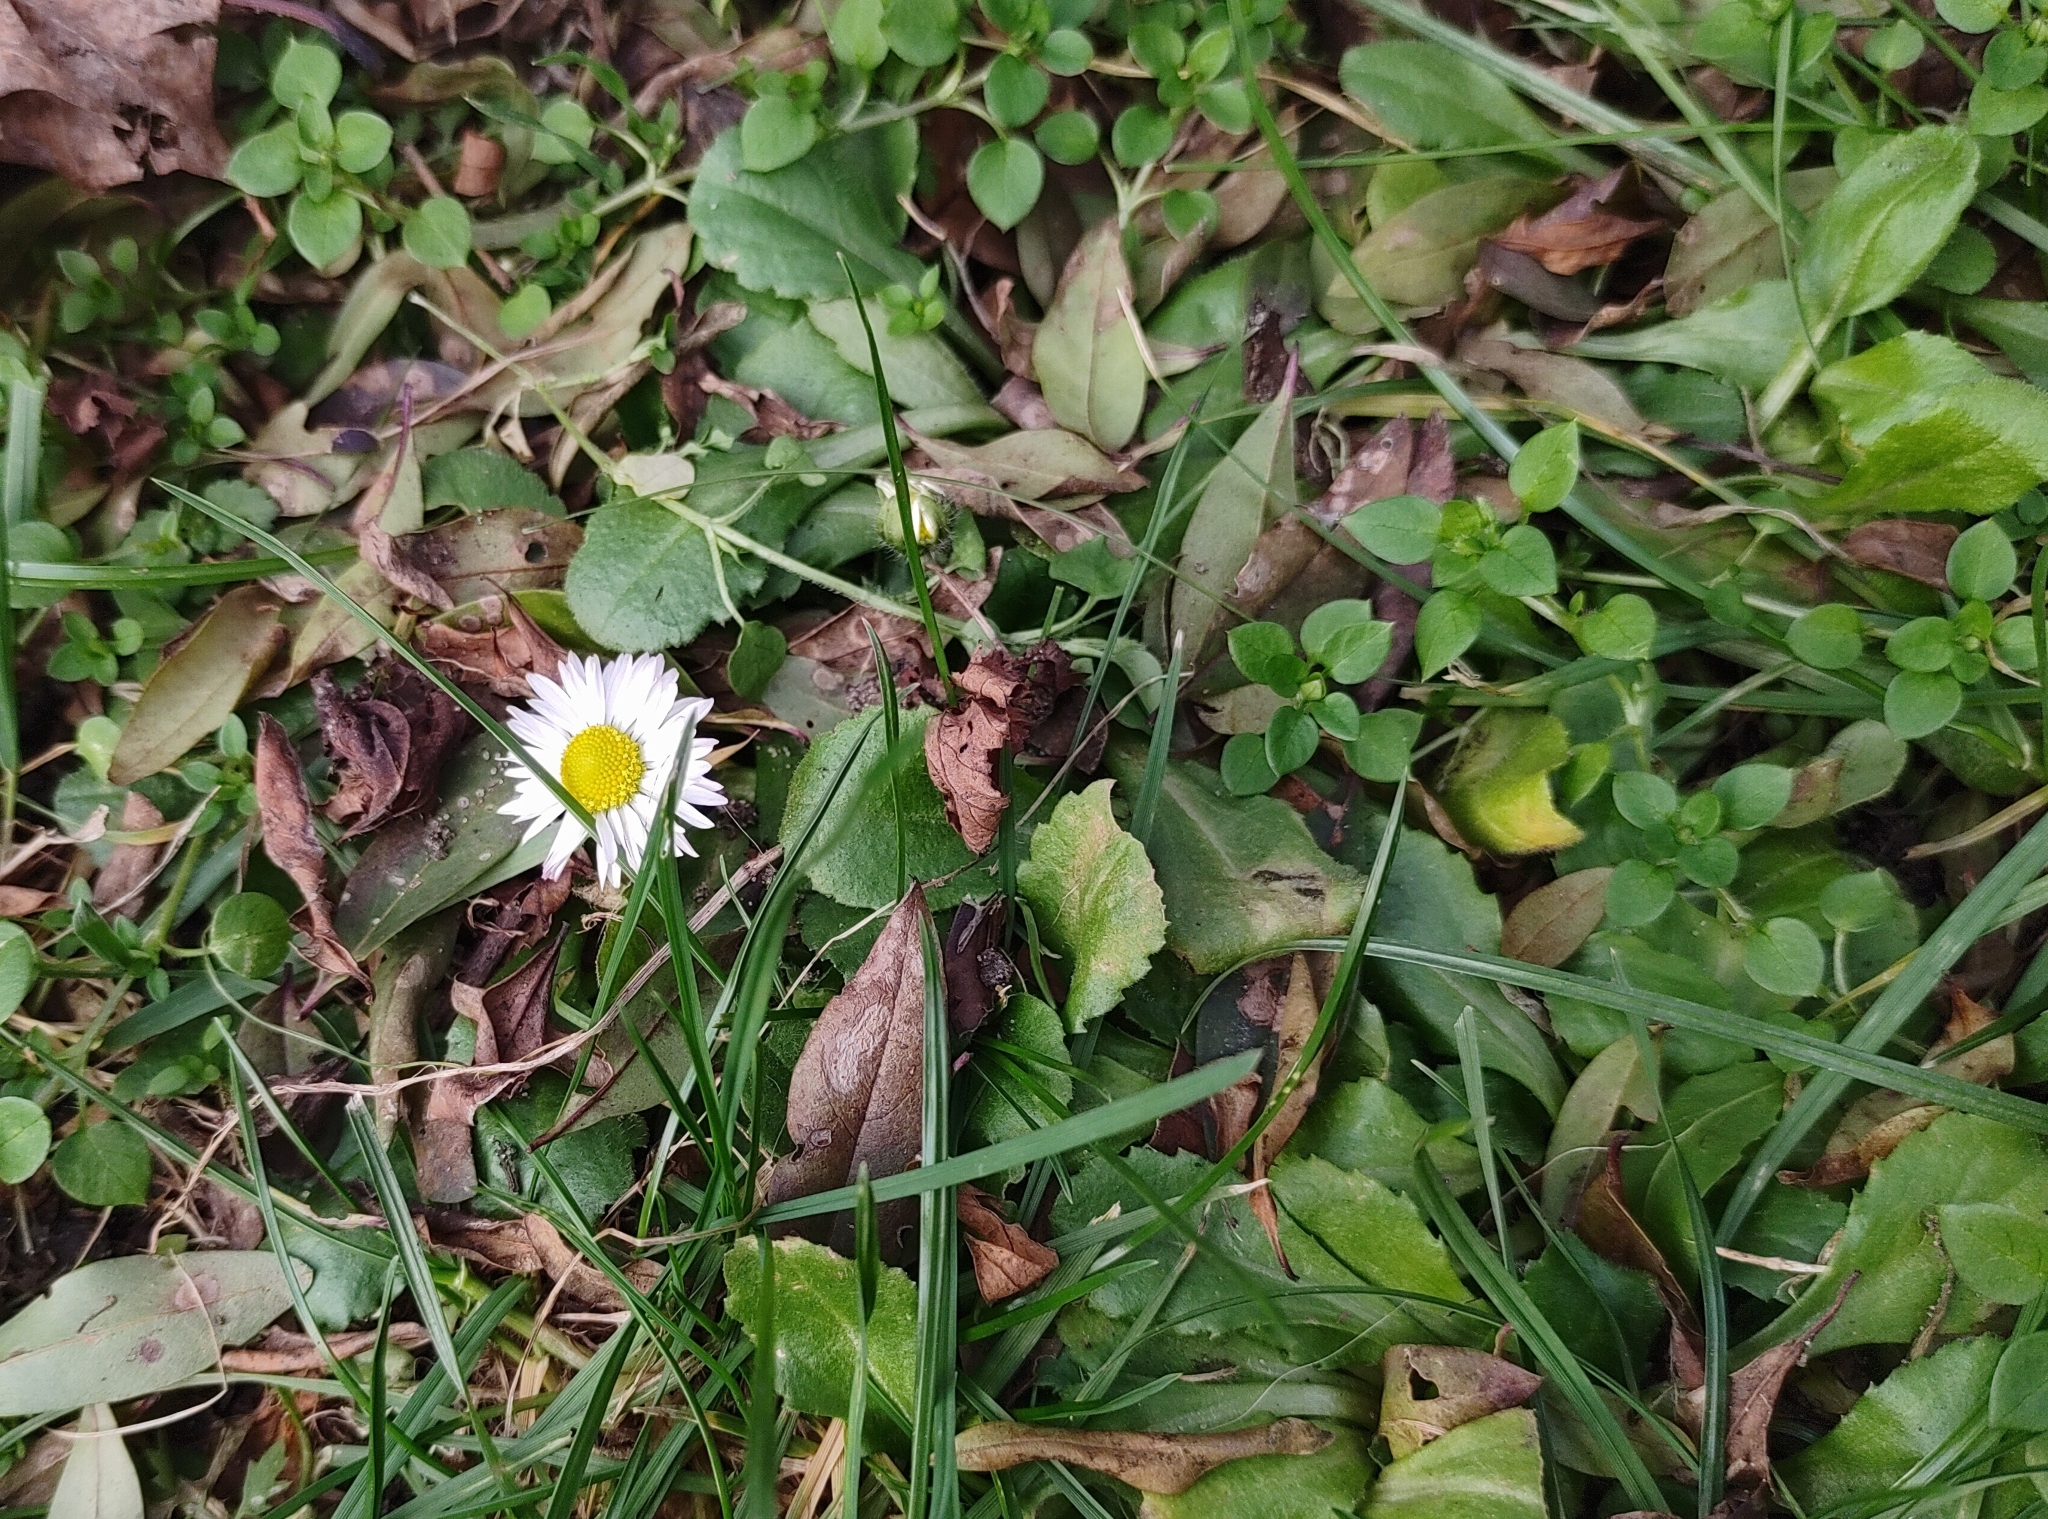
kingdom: Plantae
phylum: Tracheophyta
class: Magnoliopsida
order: Asterales
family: Asteraceae
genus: Bellis
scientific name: Bellis perennis
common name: Lawndaisy
